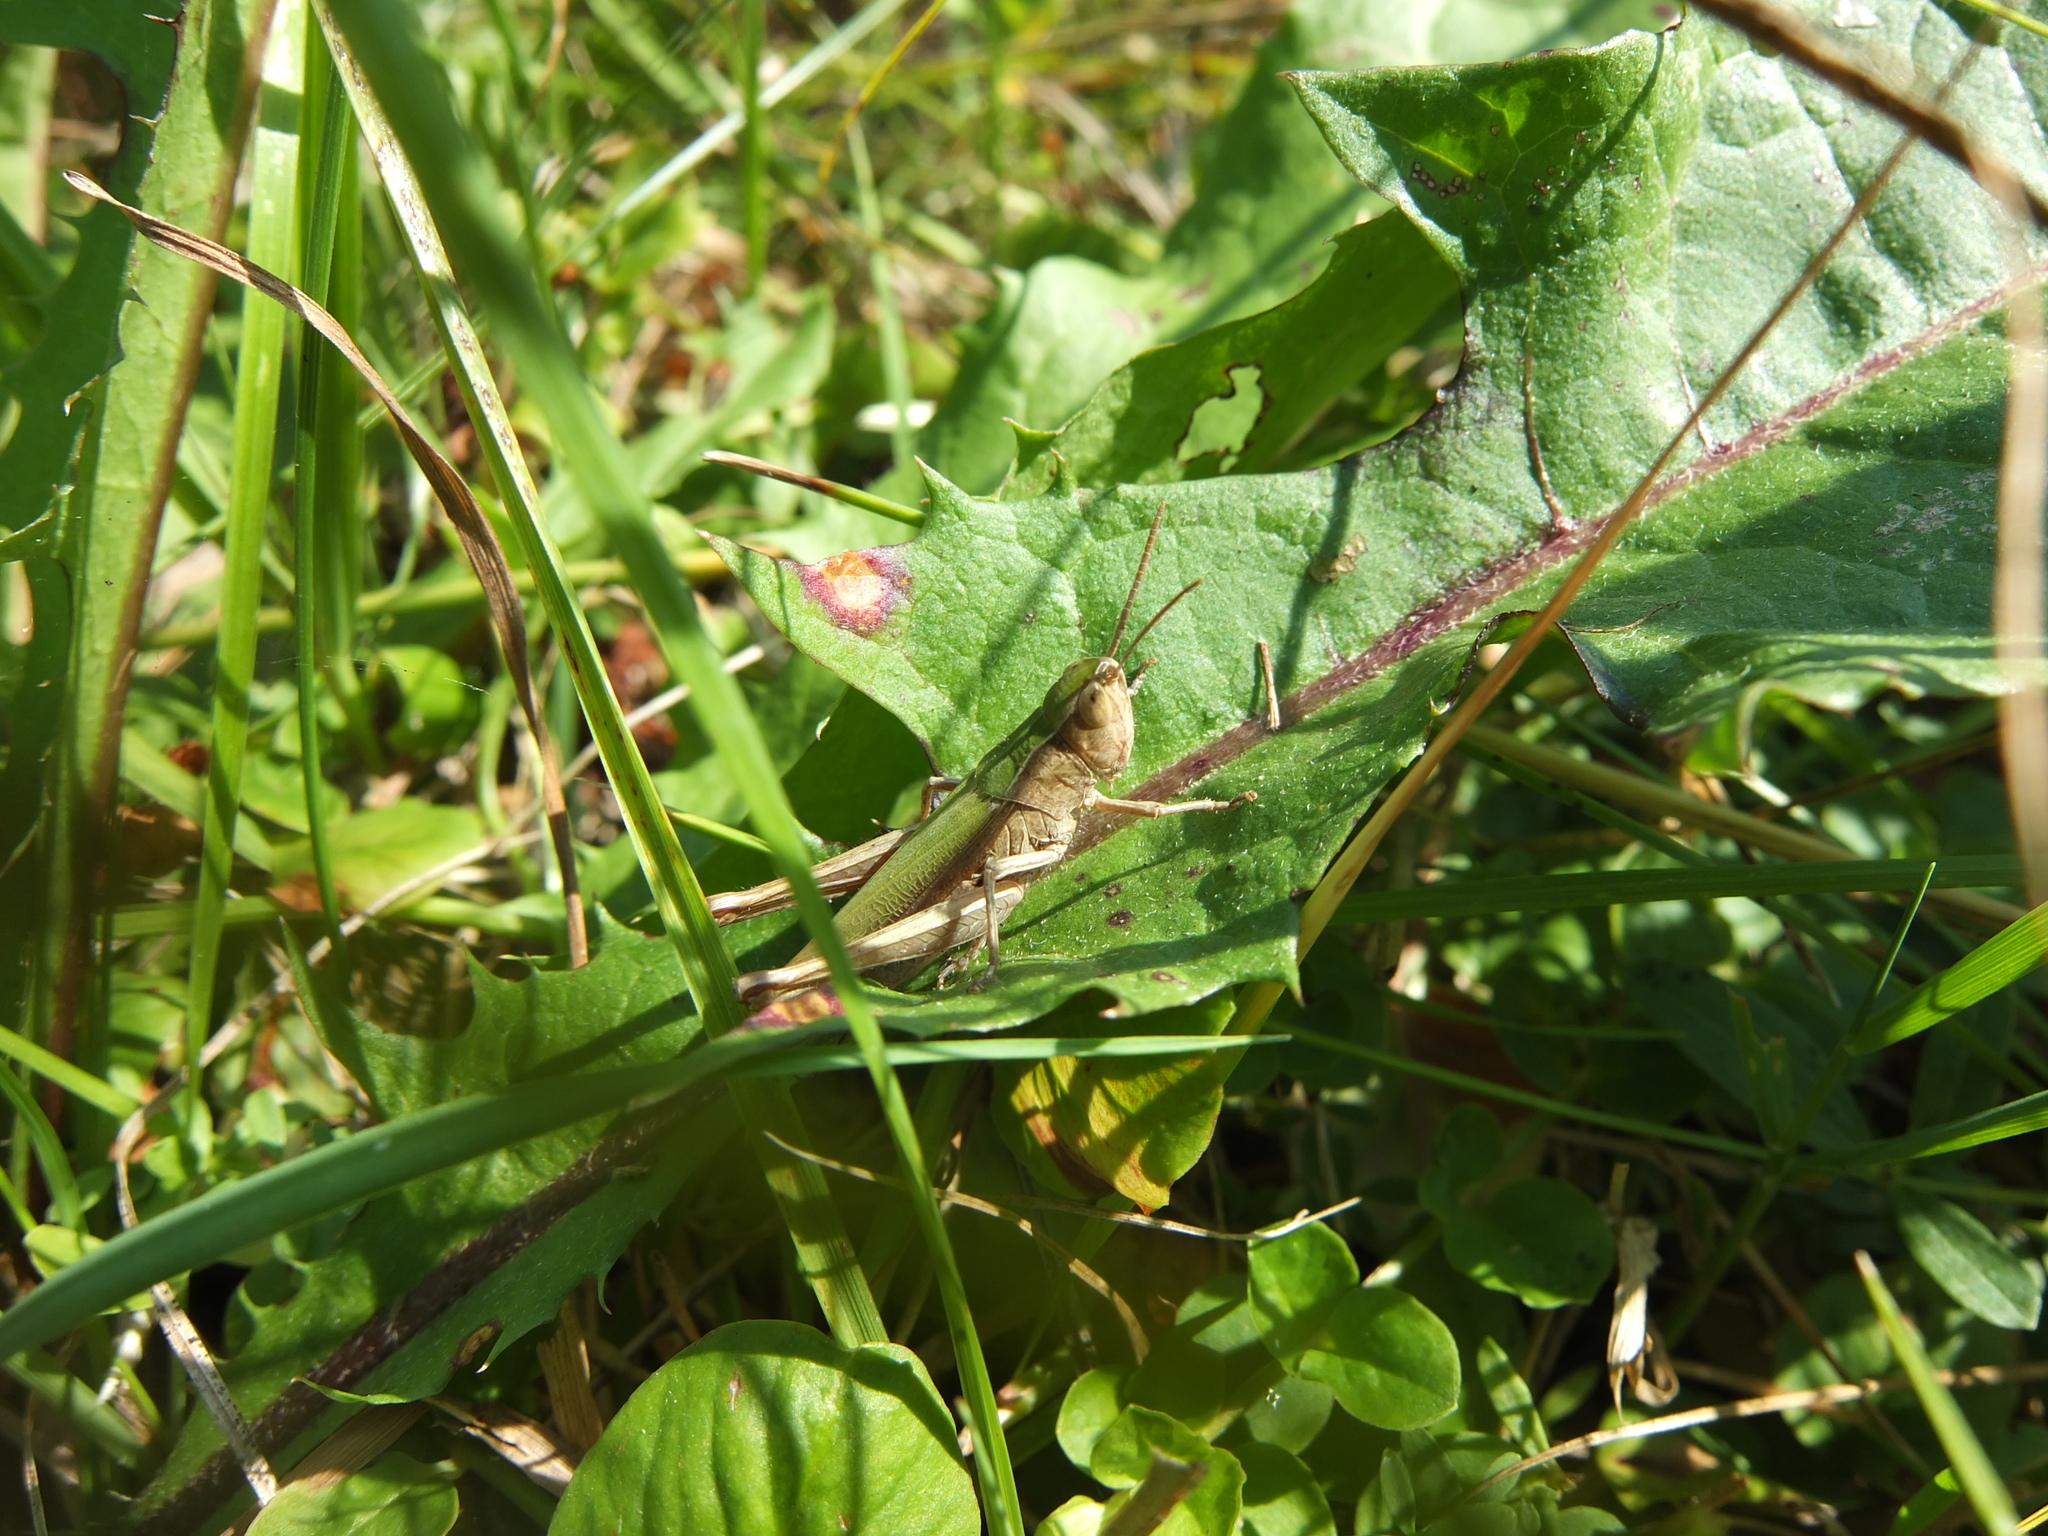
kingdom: Animalia
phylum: Arthropoda
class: Insecta
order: Orthoptera
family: Acrididae
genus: Chorthippus
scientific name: Chorthippus dorsatus
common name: Steppe grasshopper
